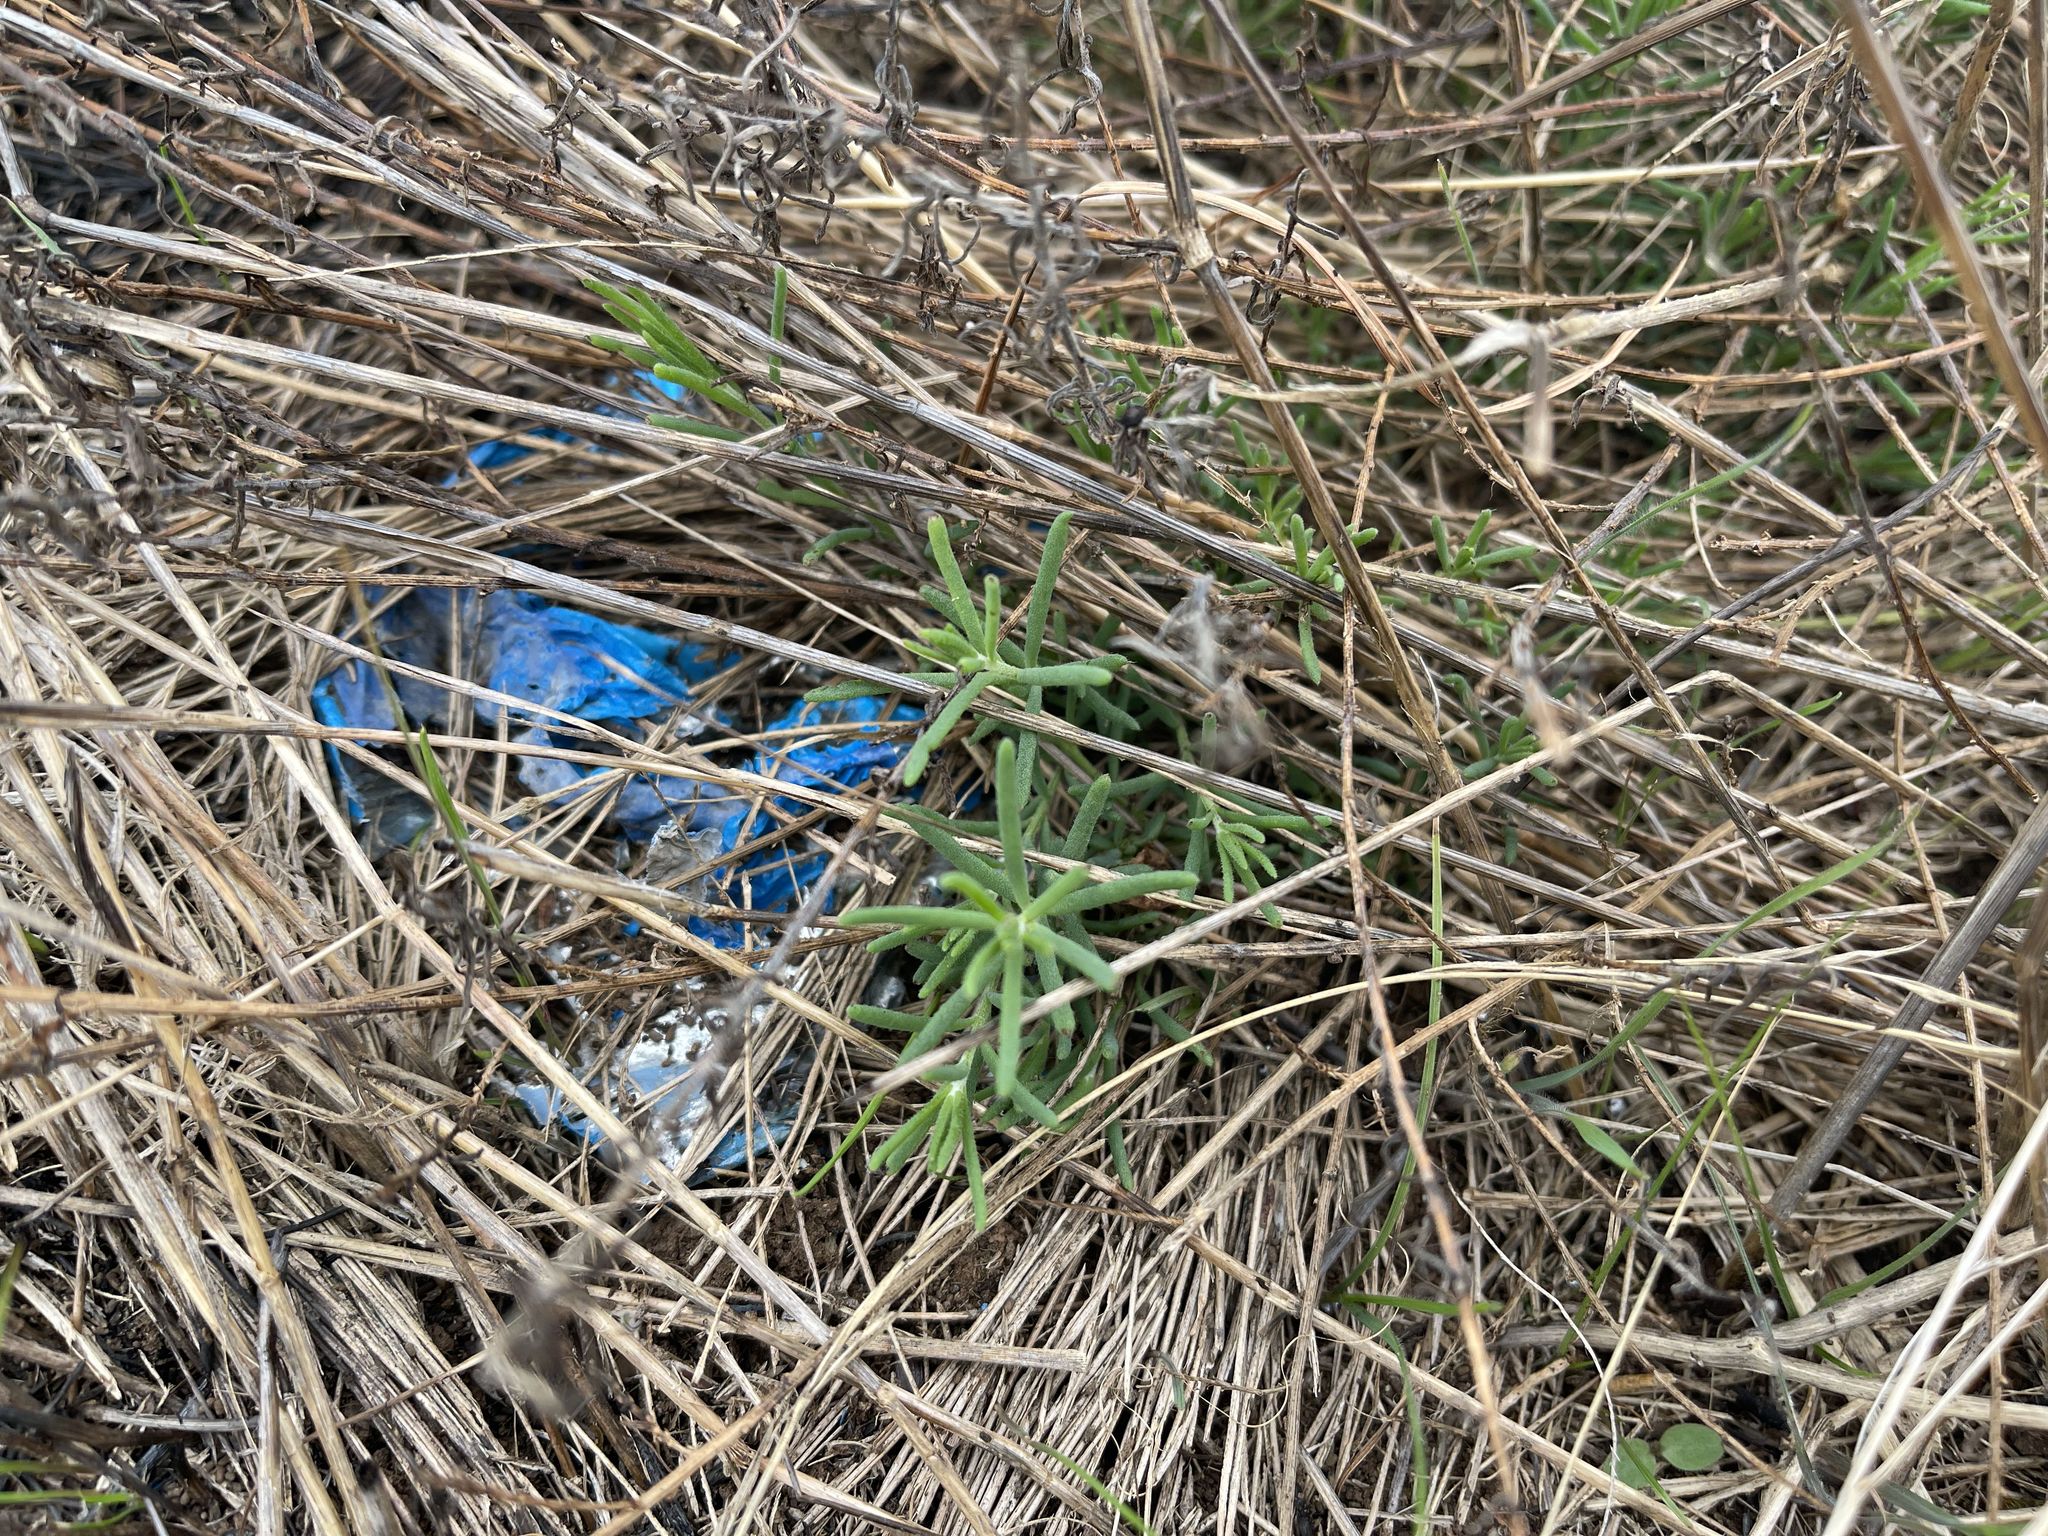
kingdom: Plantae
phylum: Tracheophyta
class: Magnoliopsida
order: Caryophyllales
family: Amaranthaceae
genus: Enchylaena
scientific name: Enchylaena tomentosa
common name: Ruby saltbush
